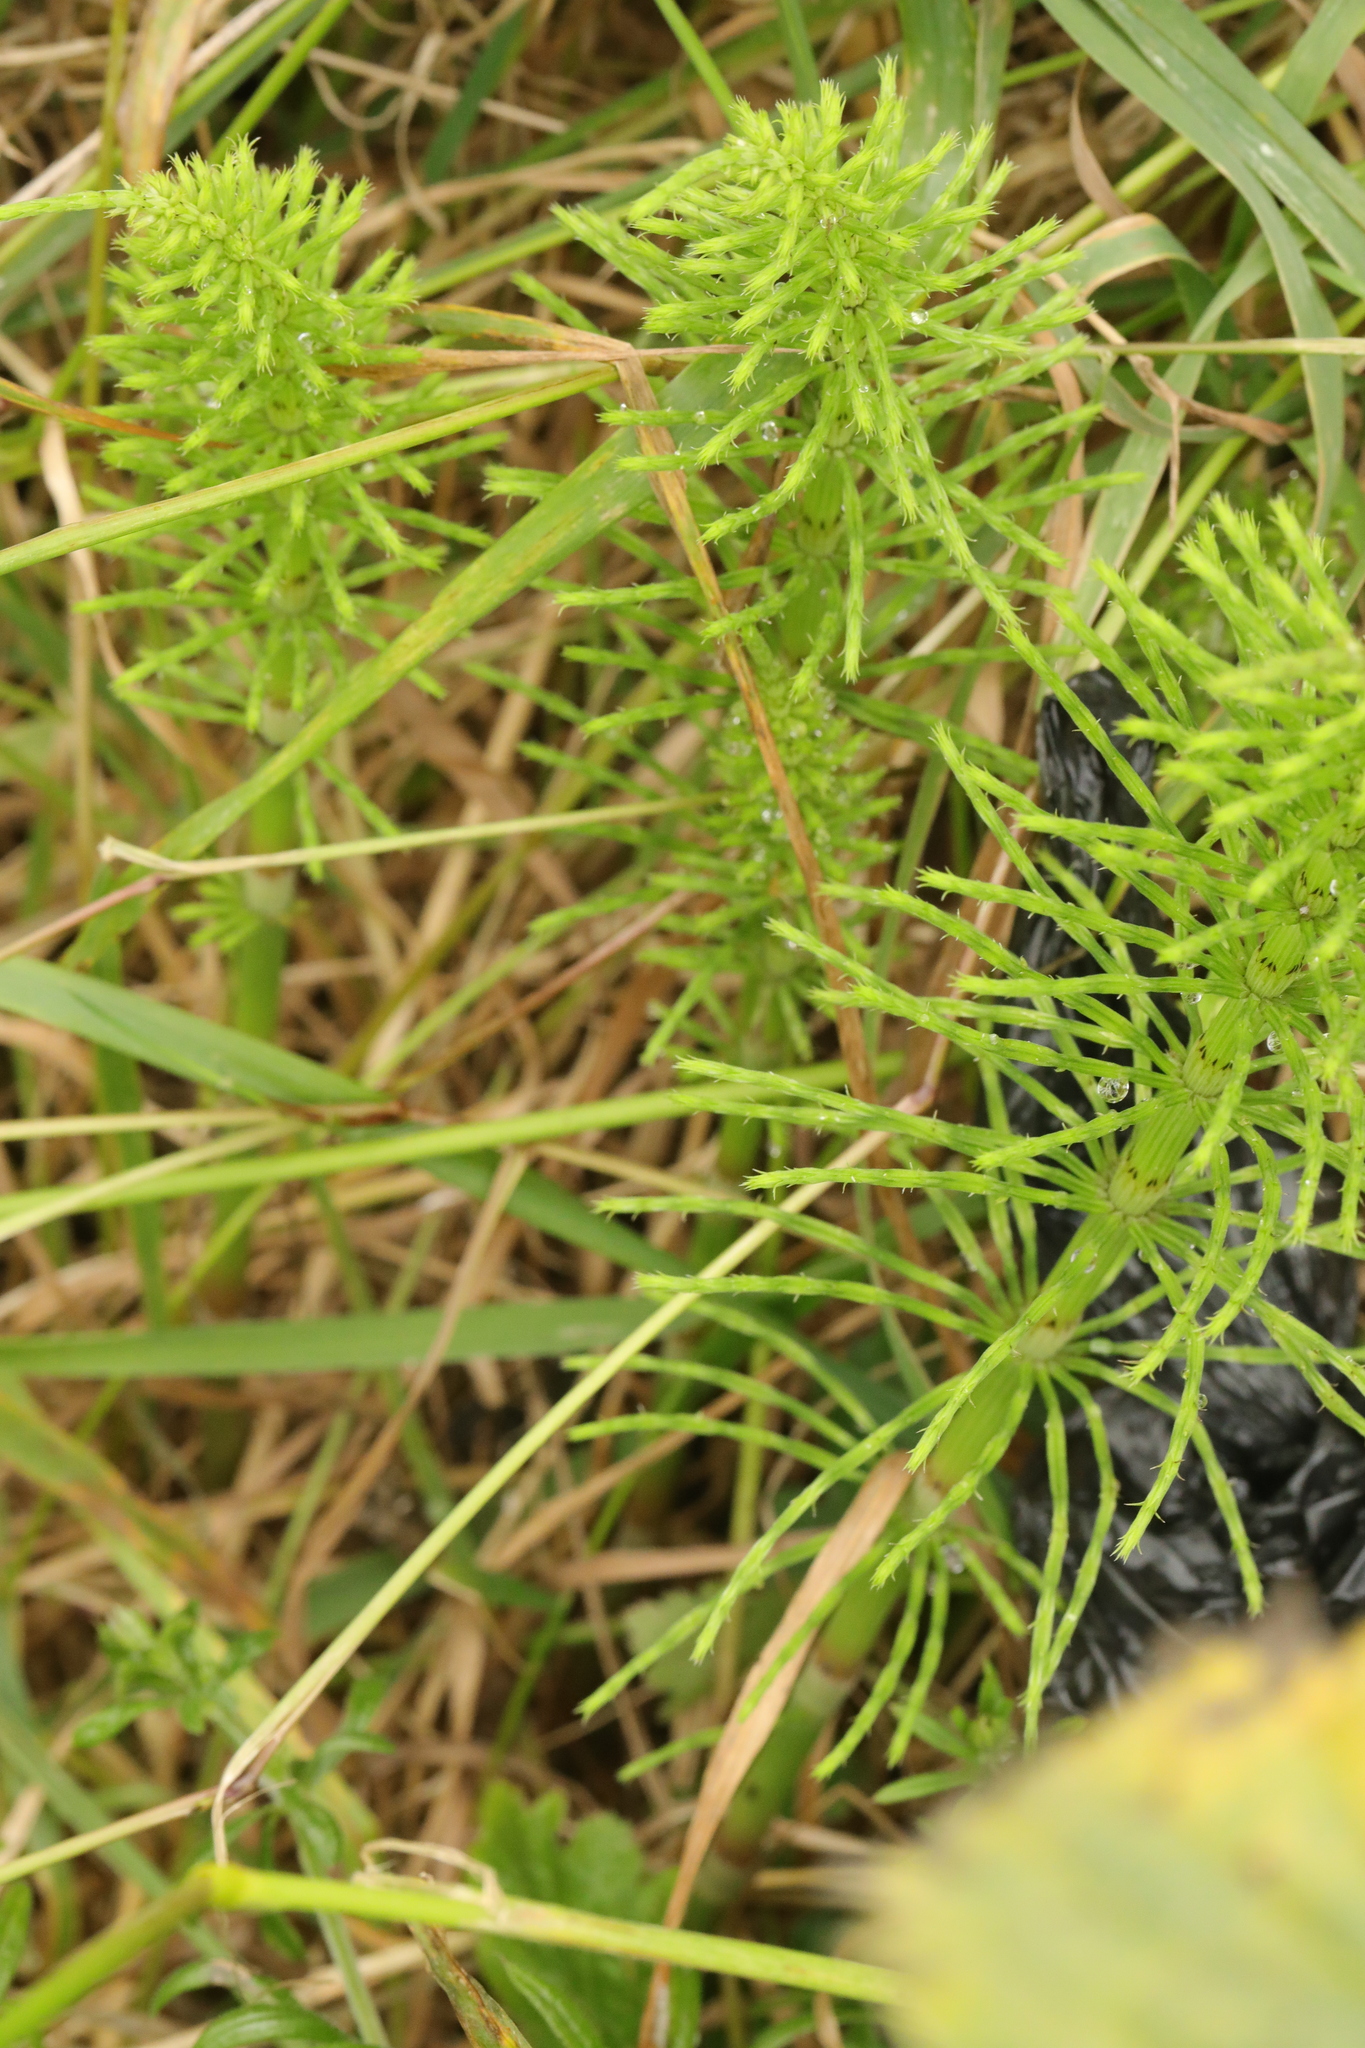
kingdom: Plantae
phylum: Tracheophyta
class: Polypodiopsida
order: Equisetales
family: Equisetaceae
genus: Equisetum
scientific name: Equisetum arvense
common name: Field horsetail
